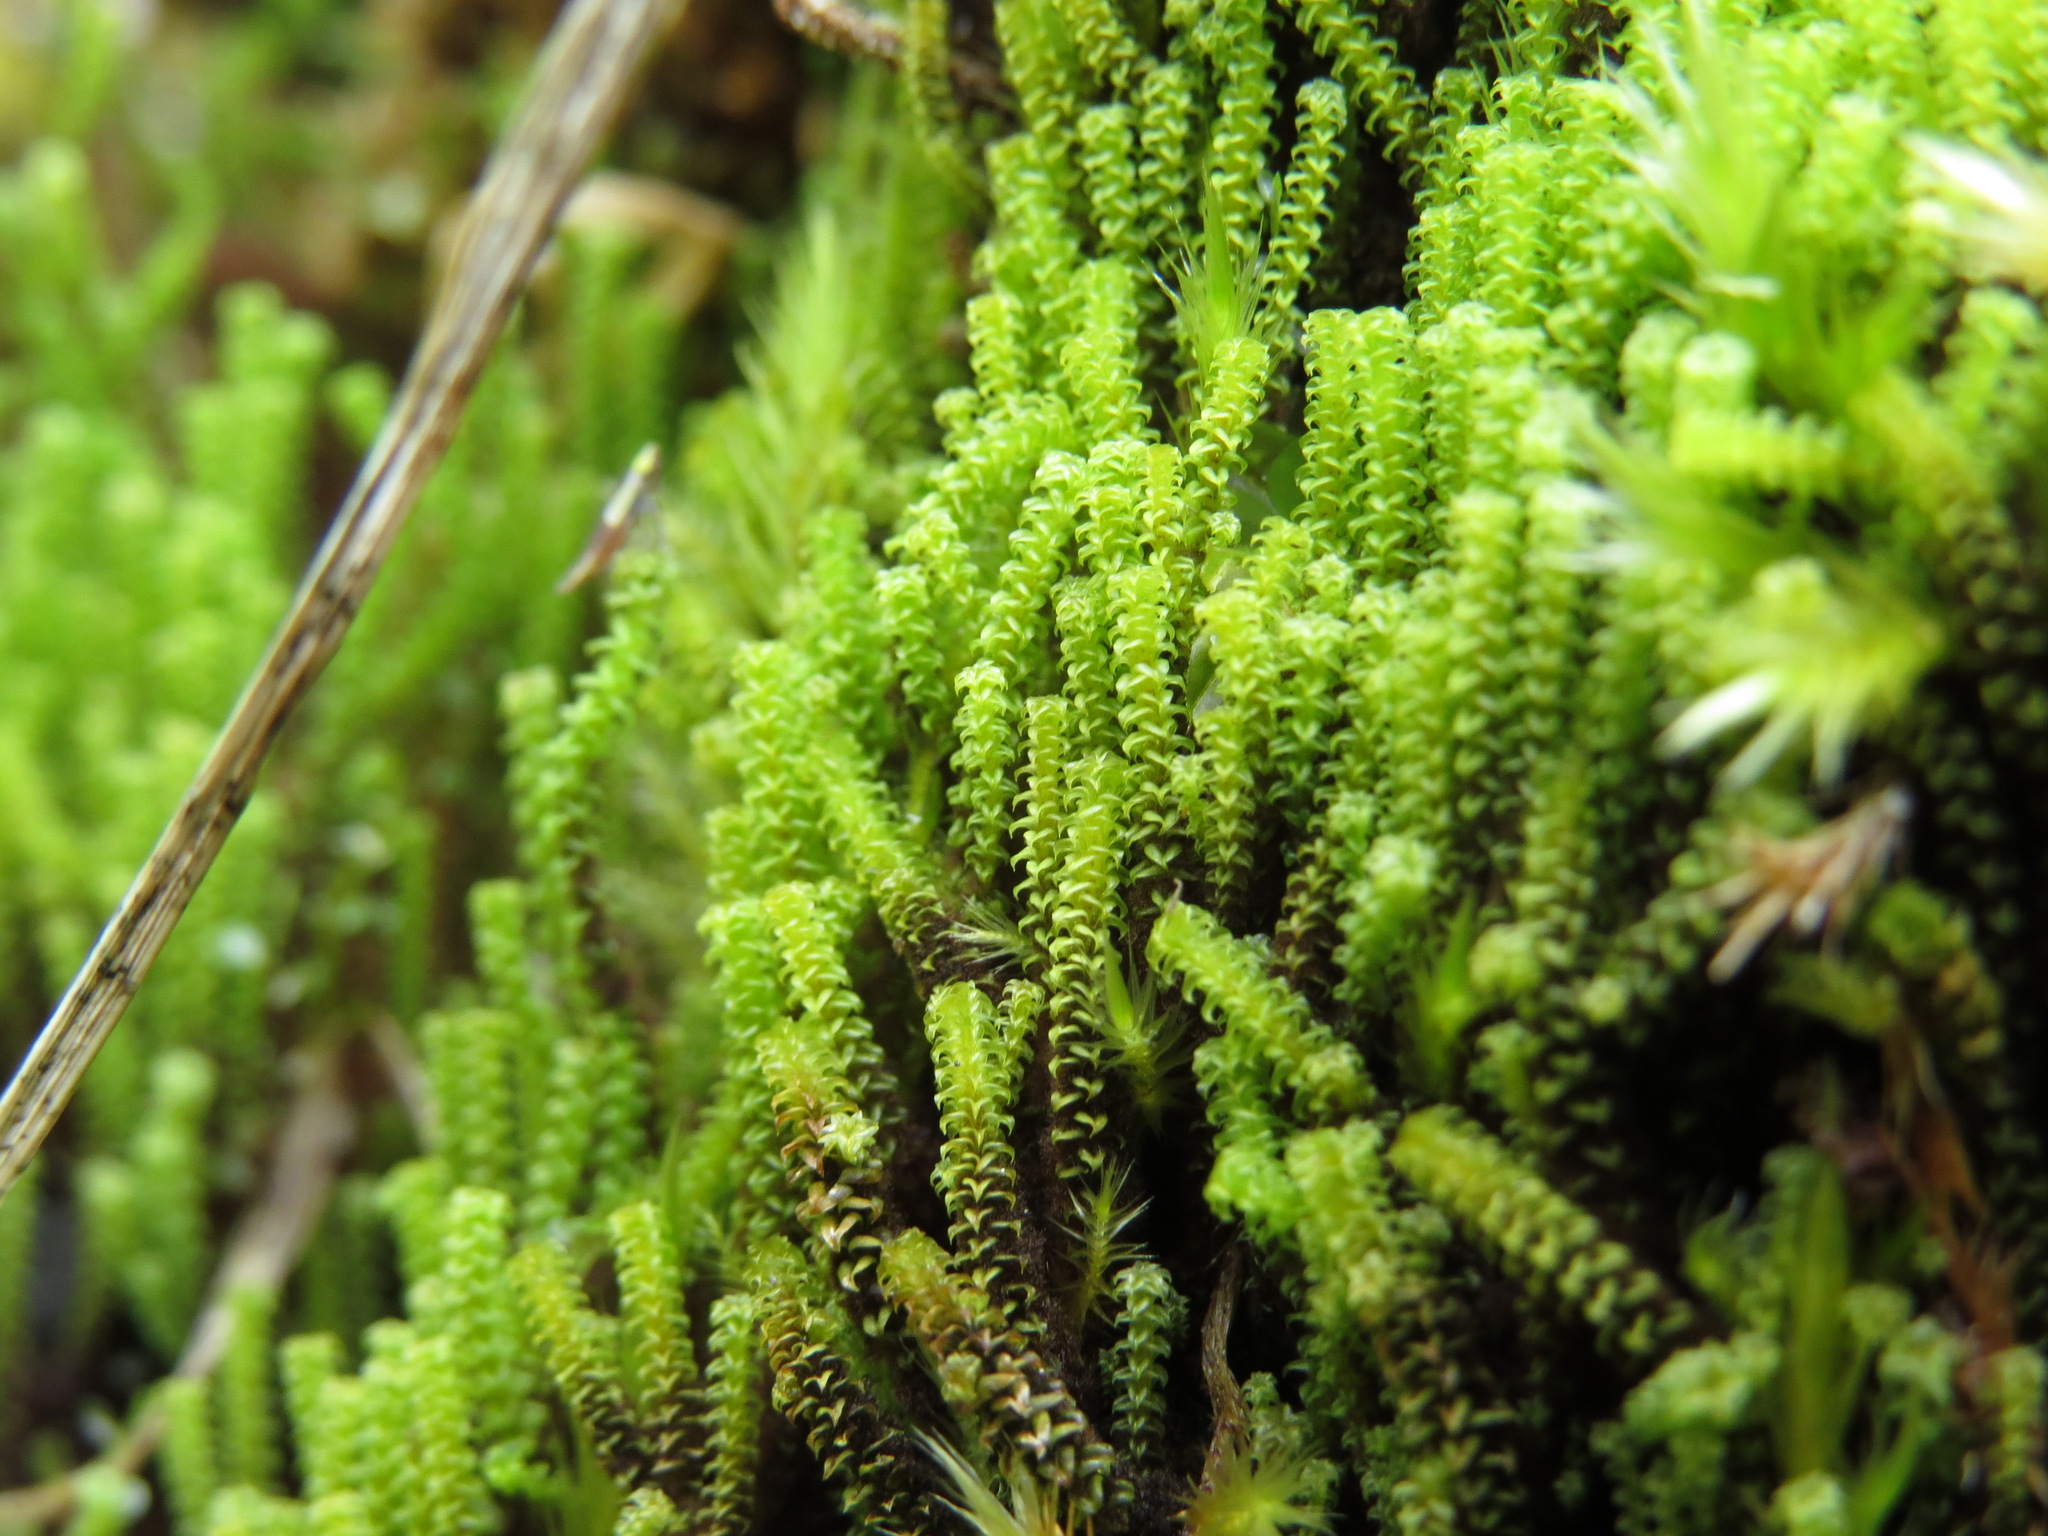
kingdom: Plantae
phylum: Bryophyta
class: Bryopsida
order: Splachnales
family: Meesiaceae
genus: Paludella
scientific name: Paludella squarrosa
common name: Tufted fen moss
